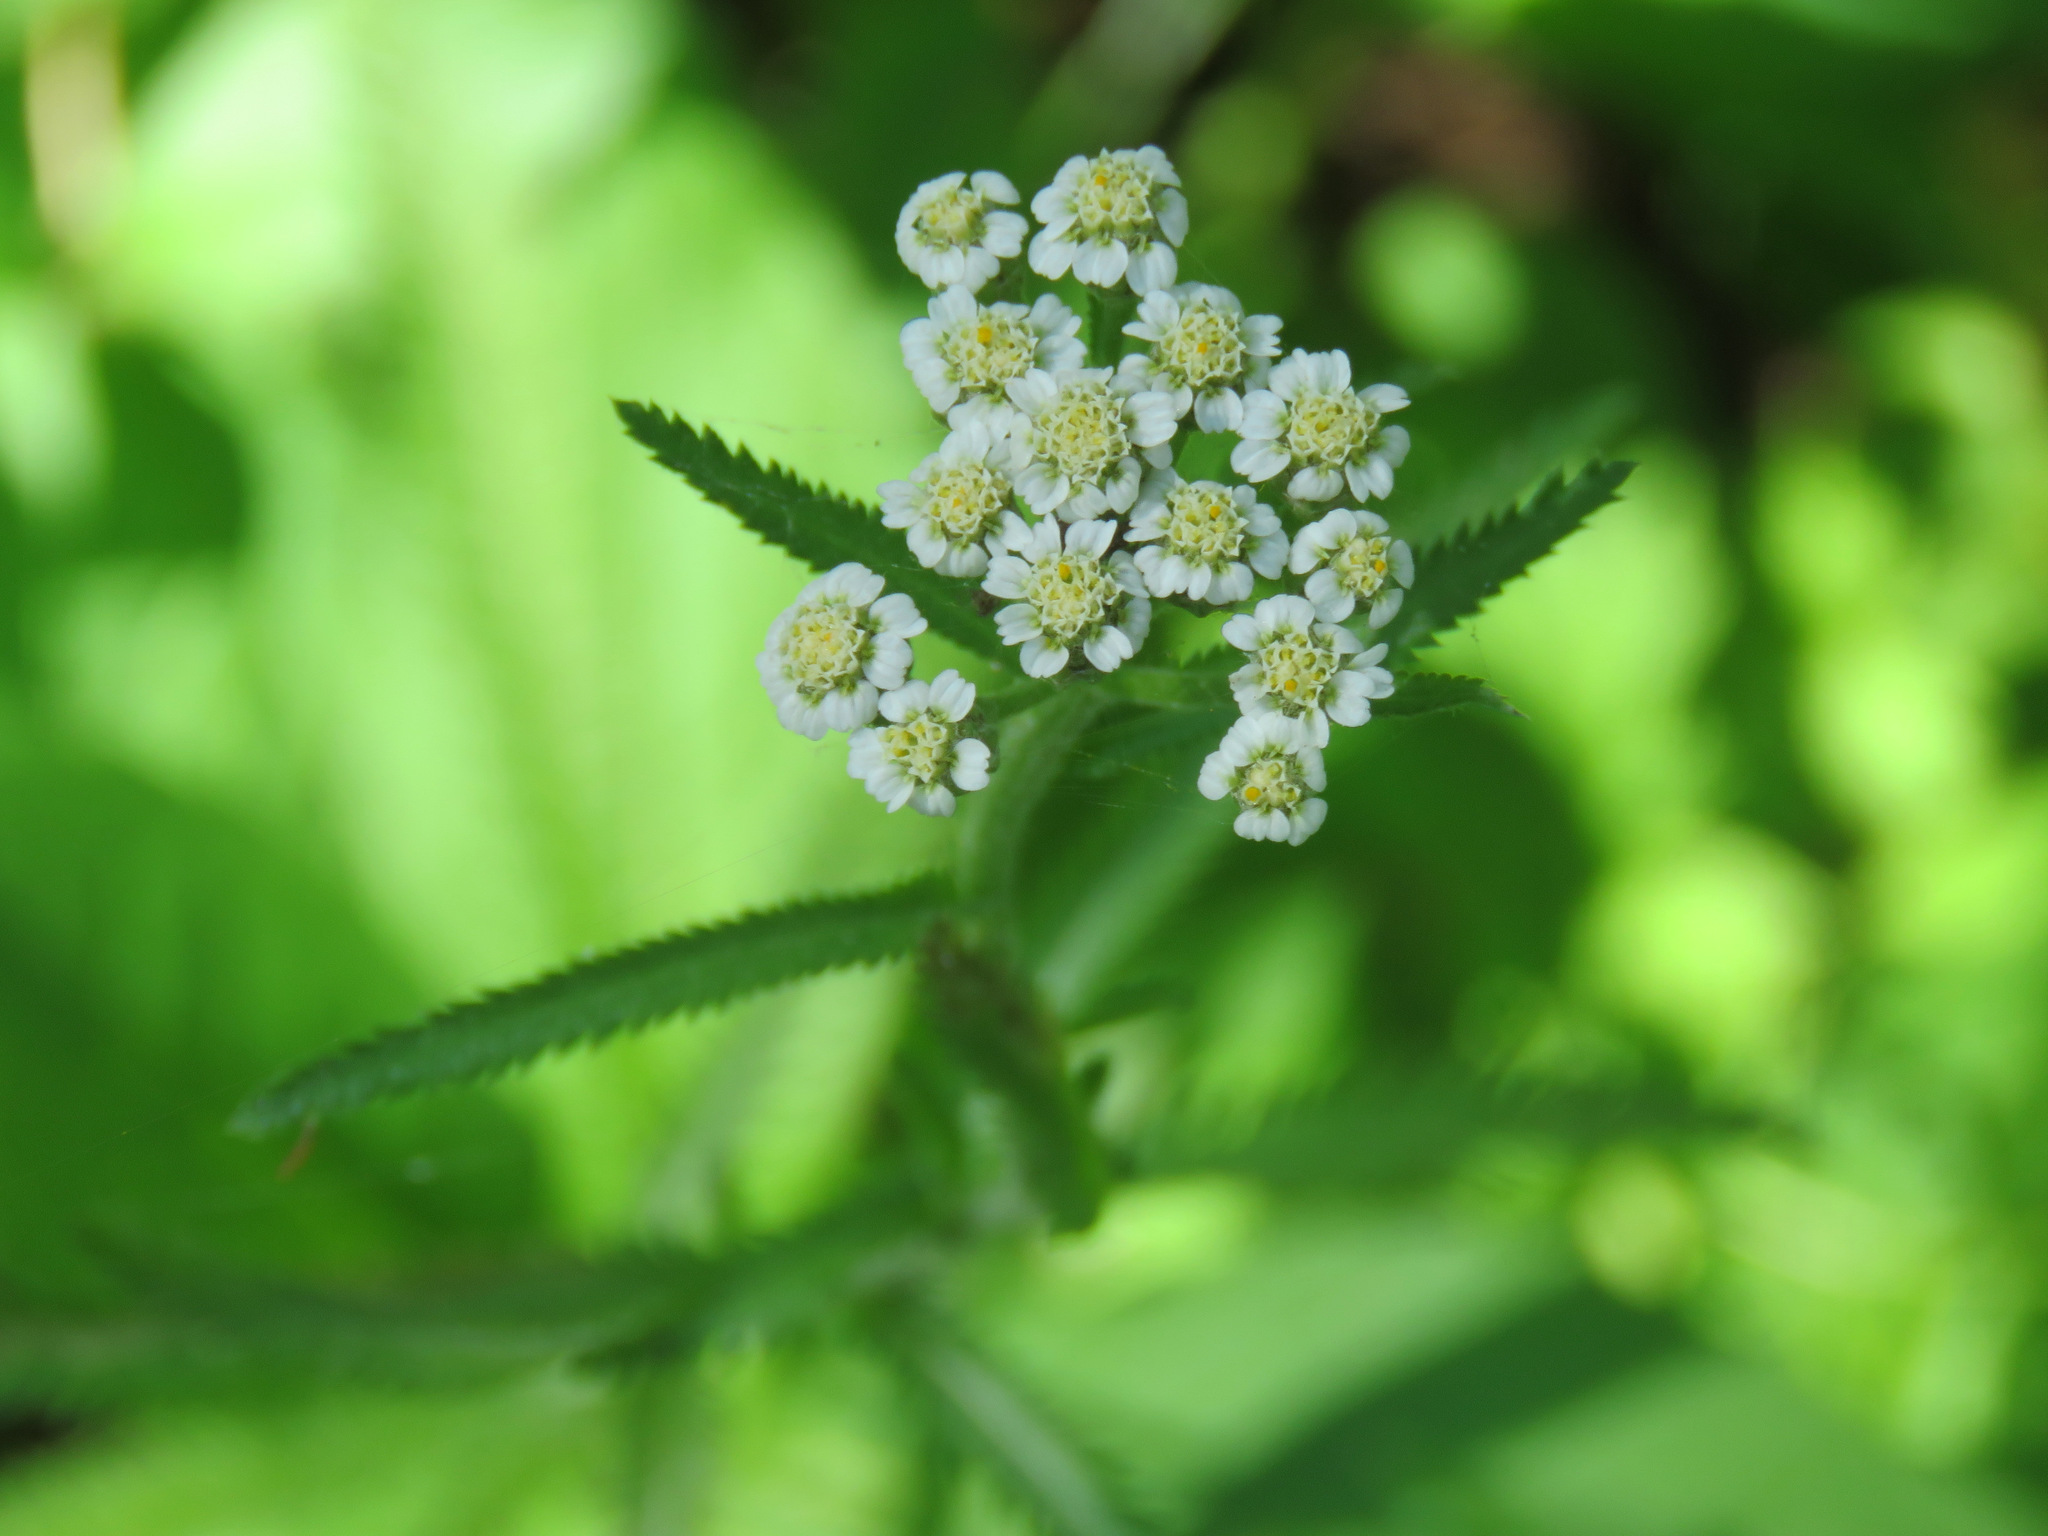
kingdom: Plantae
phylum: Tracheophyta
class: Magnoliopsida
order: Asterales
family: Asteraceae
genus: Achillea
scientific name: Achillea alpina
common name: Siberian yarrow
